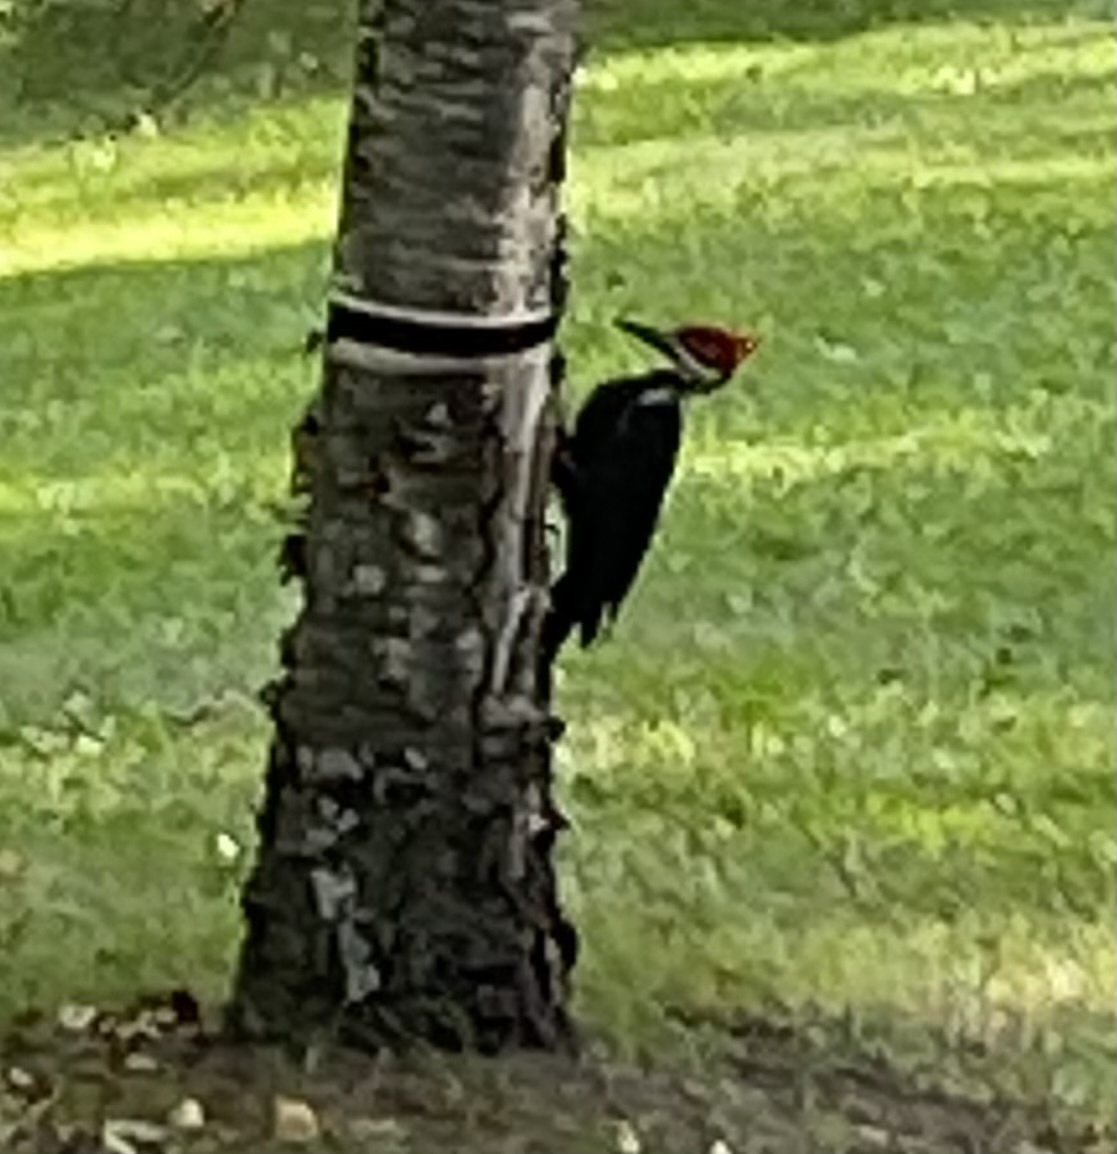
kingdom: Animalia
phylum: Chordata
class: Aves
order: Piciformes
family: Picidae
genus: Dryocopus
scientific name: Dryocopus pileatus
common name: Pileated woodpecker
